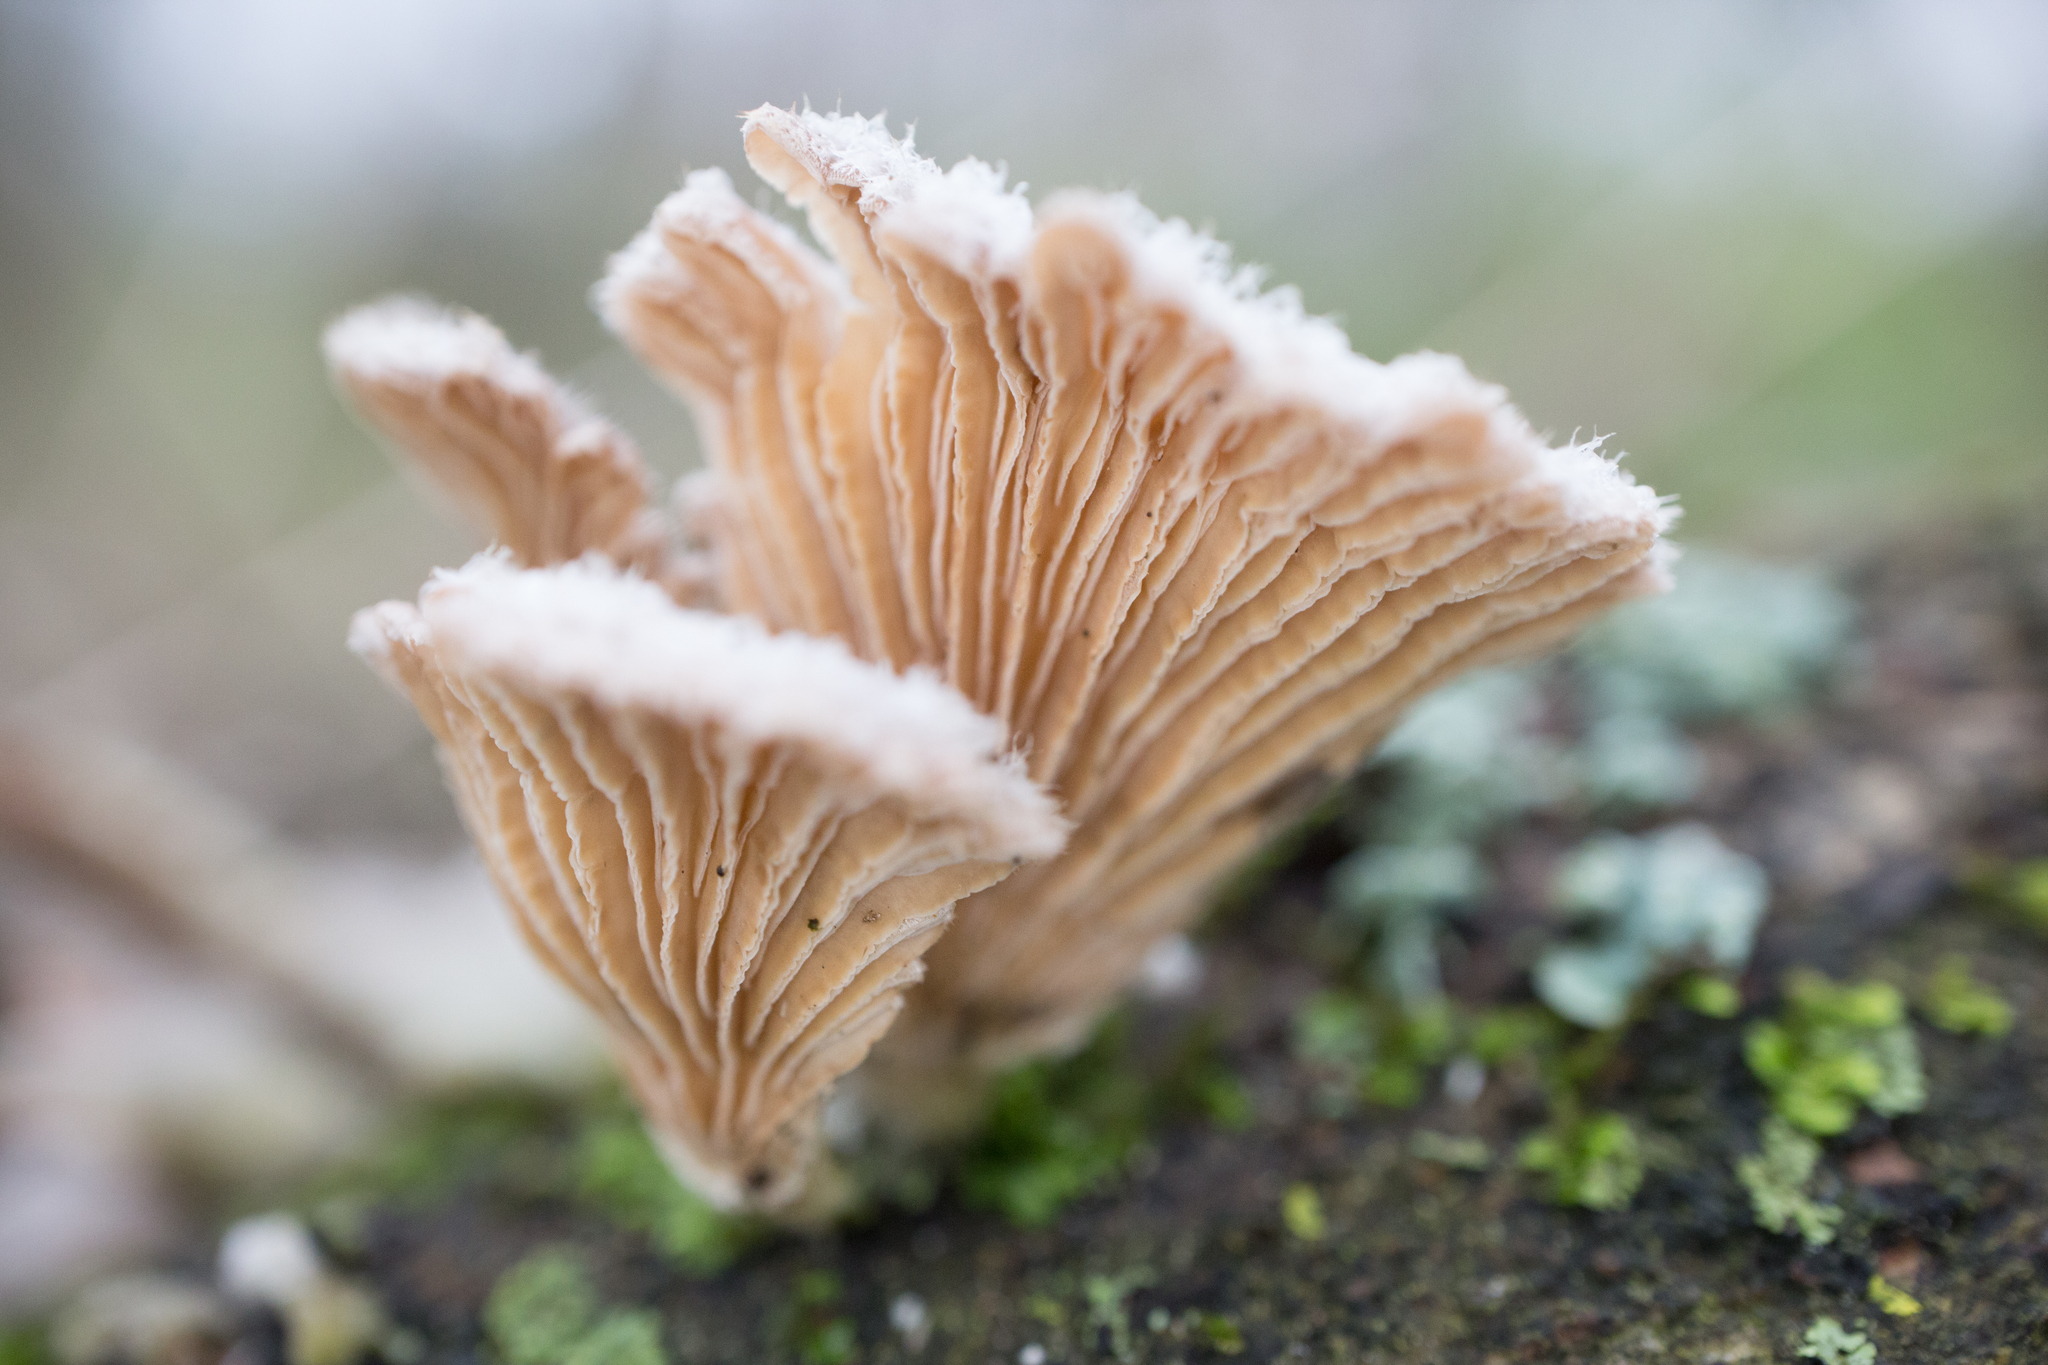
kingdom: Fungi
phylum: Basidiomycota
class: Agaricomycetes
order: Agaricales
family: Schizophyllaceae
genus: Schizophyllum
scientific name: Schizophyllum commune
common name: Common porecrust
